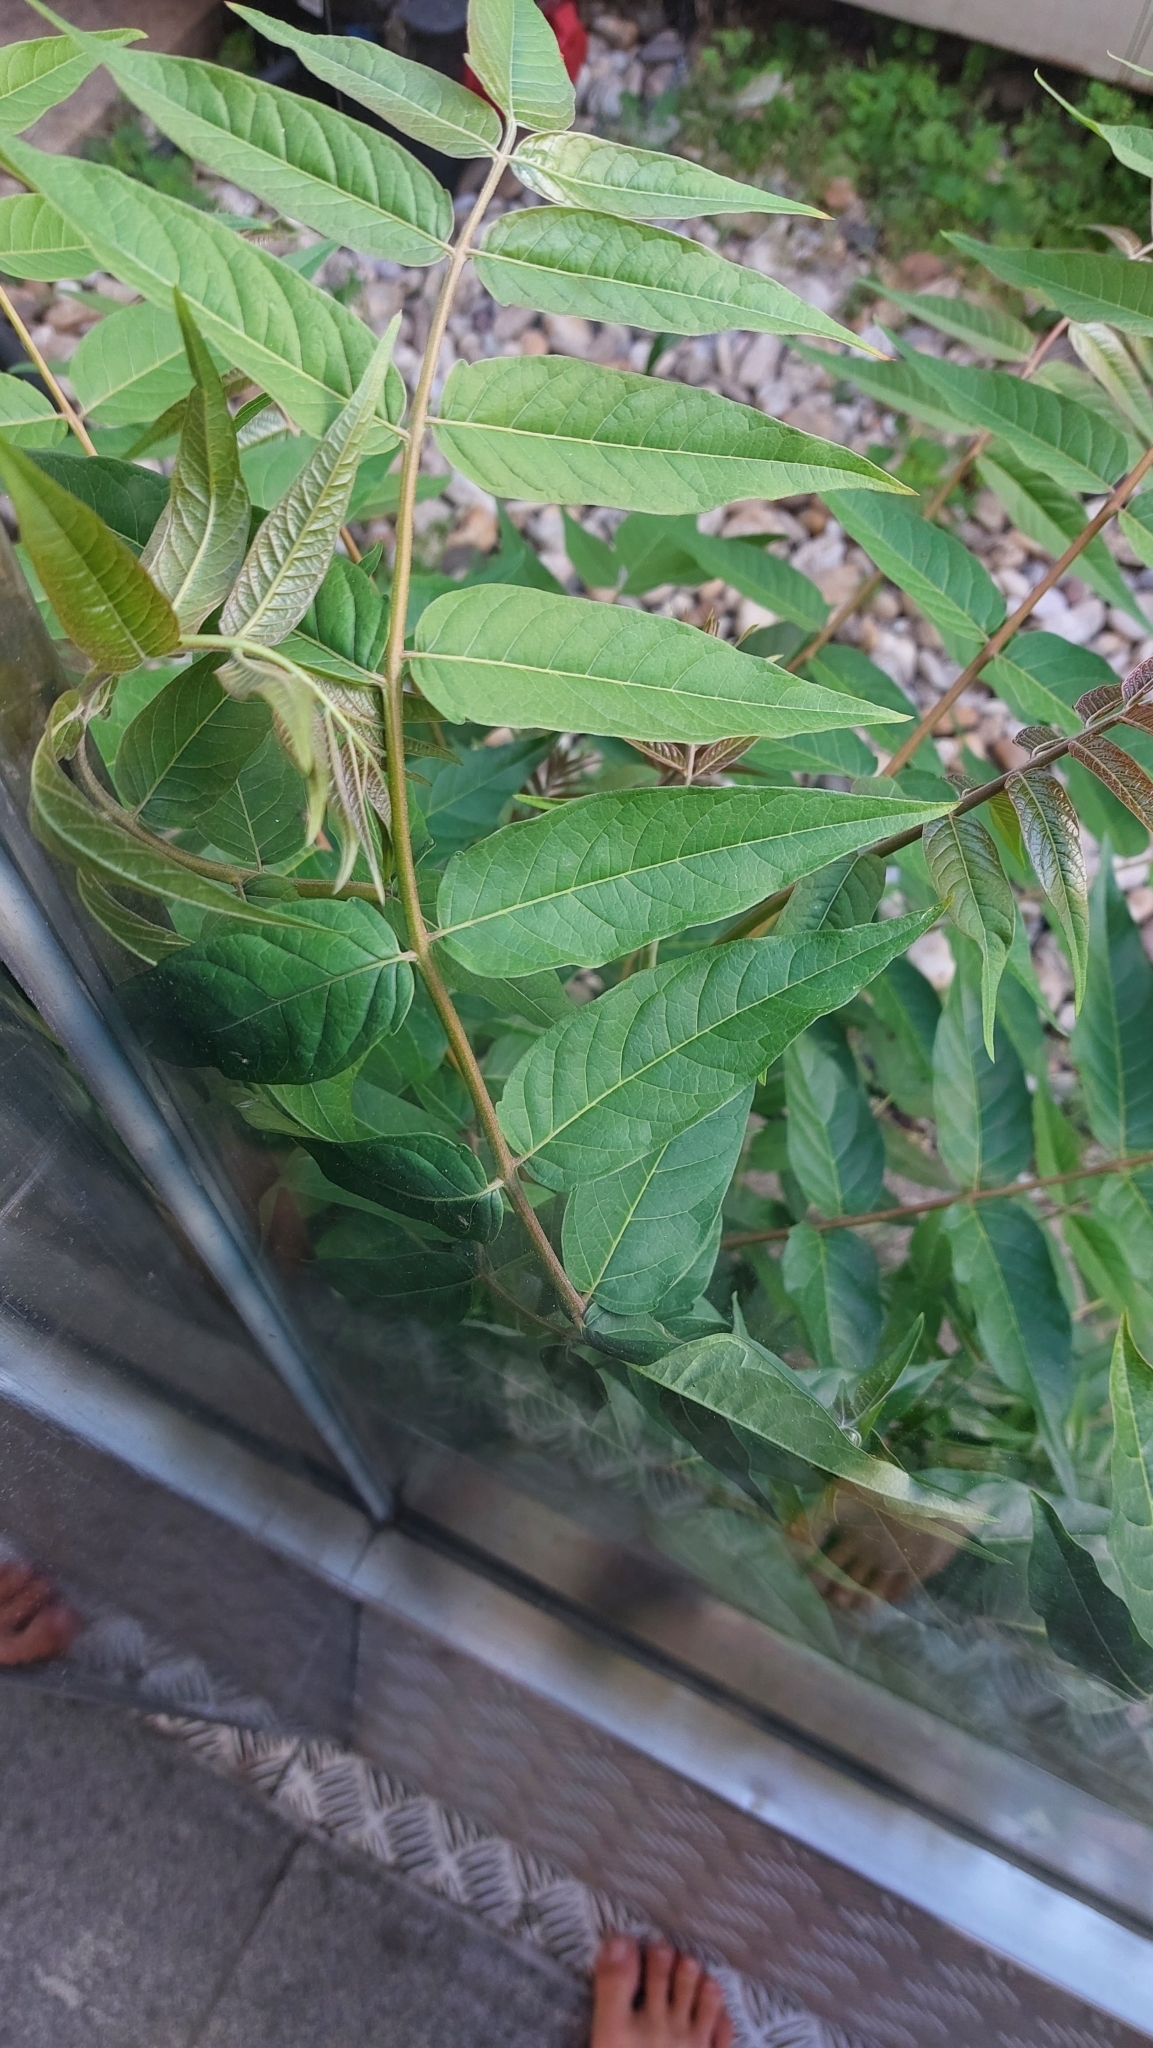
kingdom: Plantae
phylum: Tracheophyta
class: Magnoliopsida
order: Sapindales
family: Simaroubaceae
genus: Ailanthus
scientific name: Ailanthus altissima
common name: Tree-of-heaven
